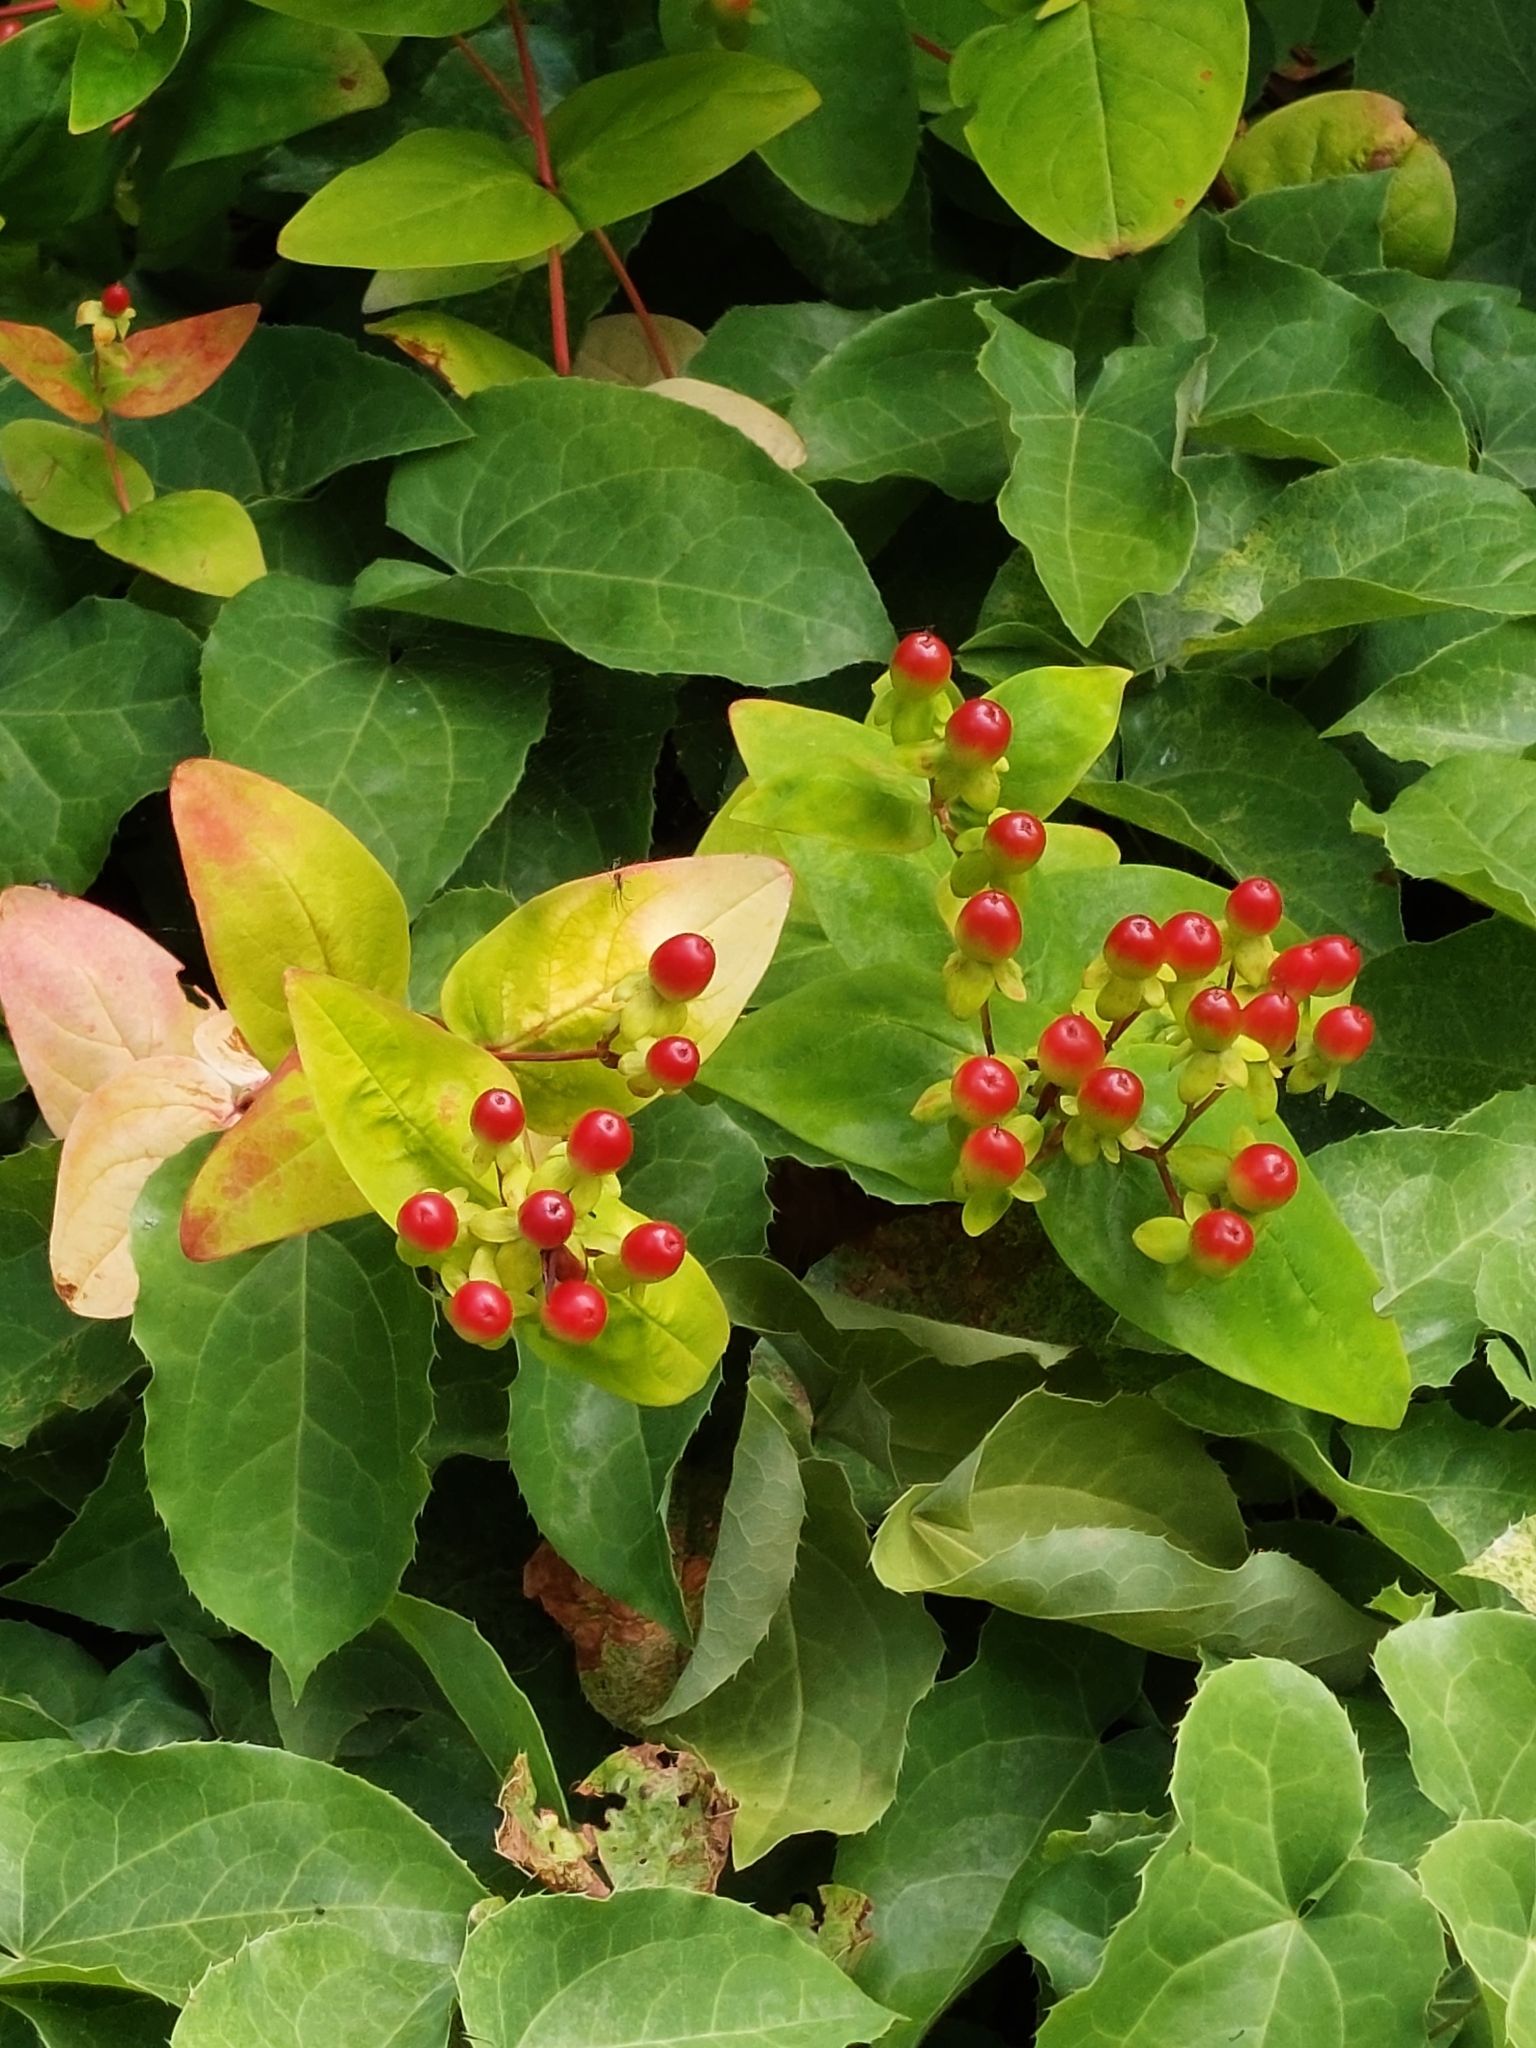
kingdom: Plantae
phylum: Tracheophyta
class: Magnoliopsida
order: Malpighiales
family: Hypericaceae
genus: Hypericum
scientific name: Hypericum androsaemum
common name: Sweet-amber
